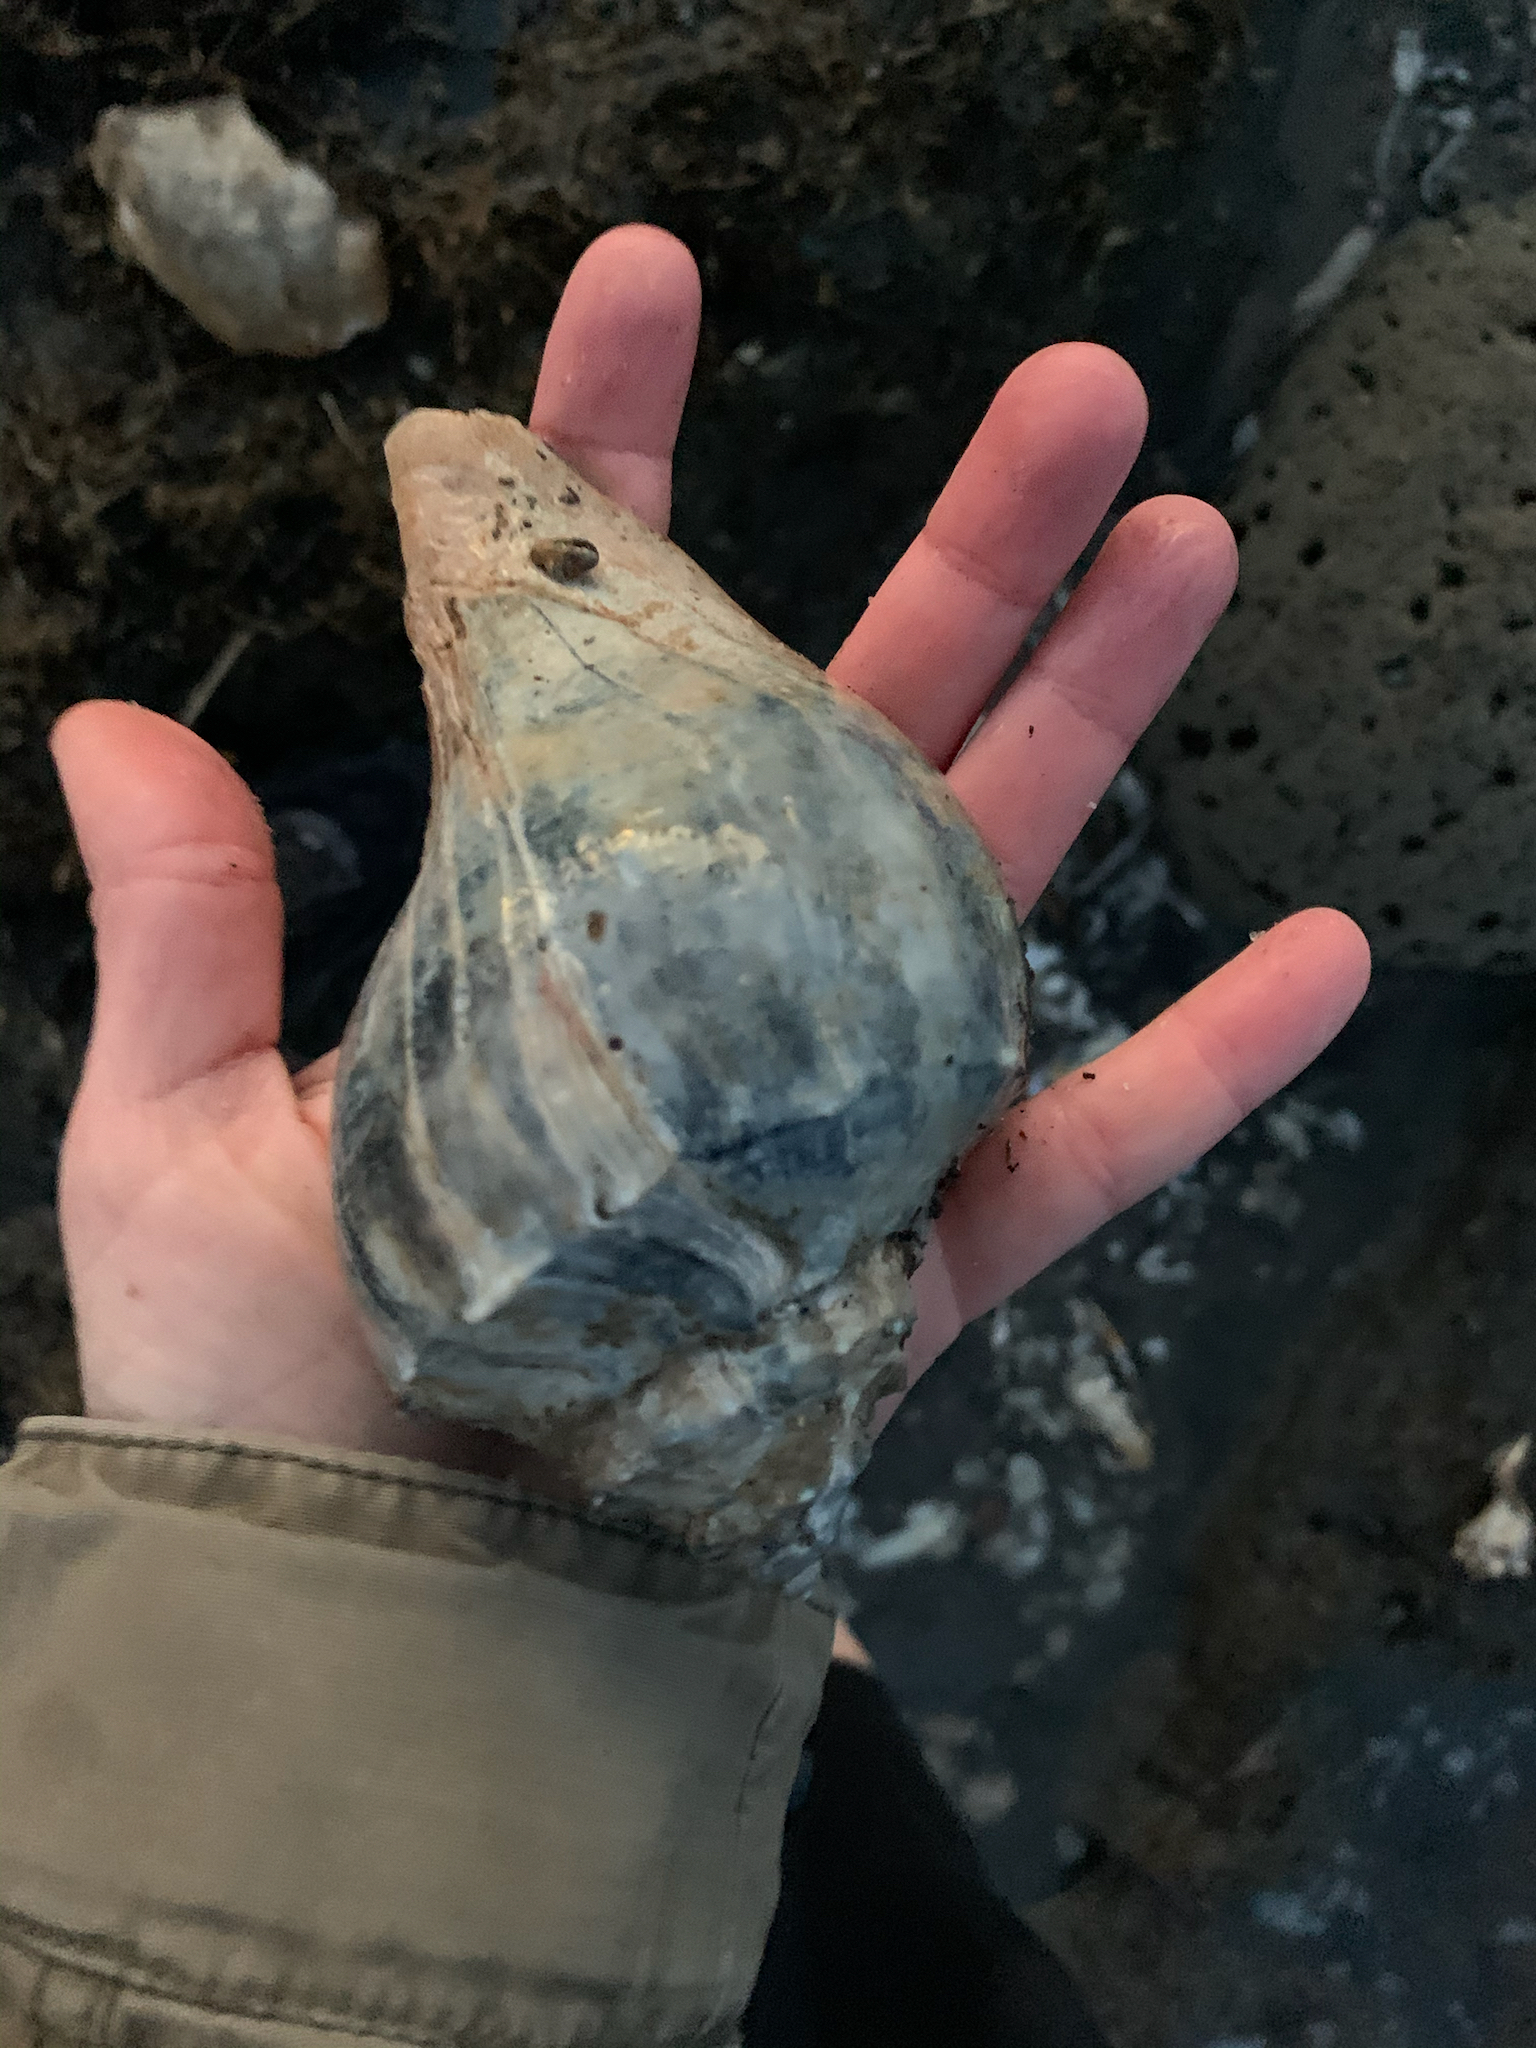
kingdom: Animalia
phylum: Mollusca
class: Gastropoda
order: Neogastropoda
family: Busyconidae
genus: Busycon
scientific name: Busycon carica
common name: Knobbed whelk
